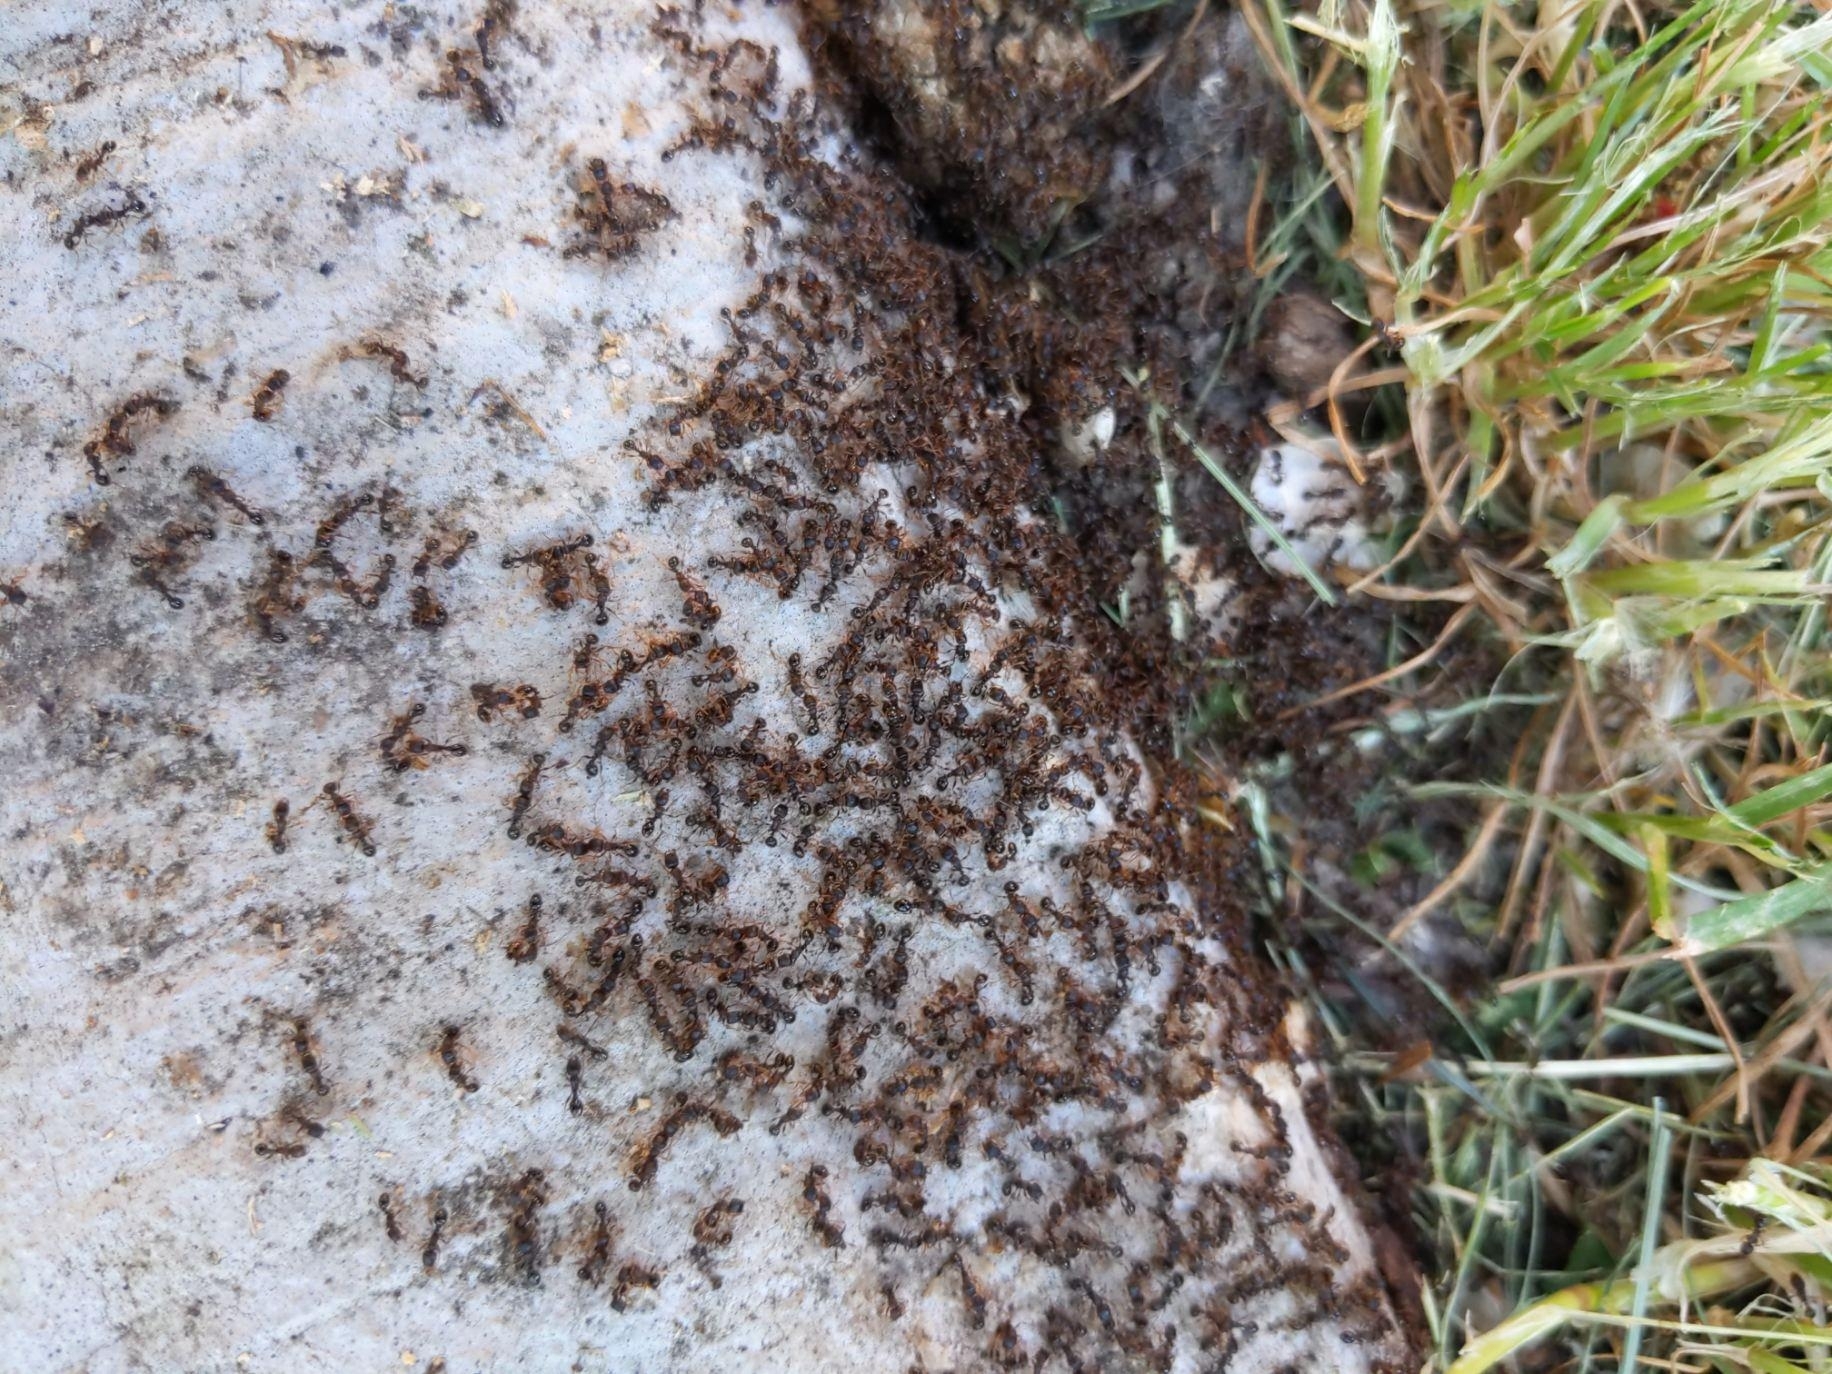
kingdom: Animalia
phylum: Arthropoda
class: Insecta
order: Hymenoptera
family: Formicidae
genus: Tetramorium
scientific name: Tetramorium immigrans
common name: Pavement ant
